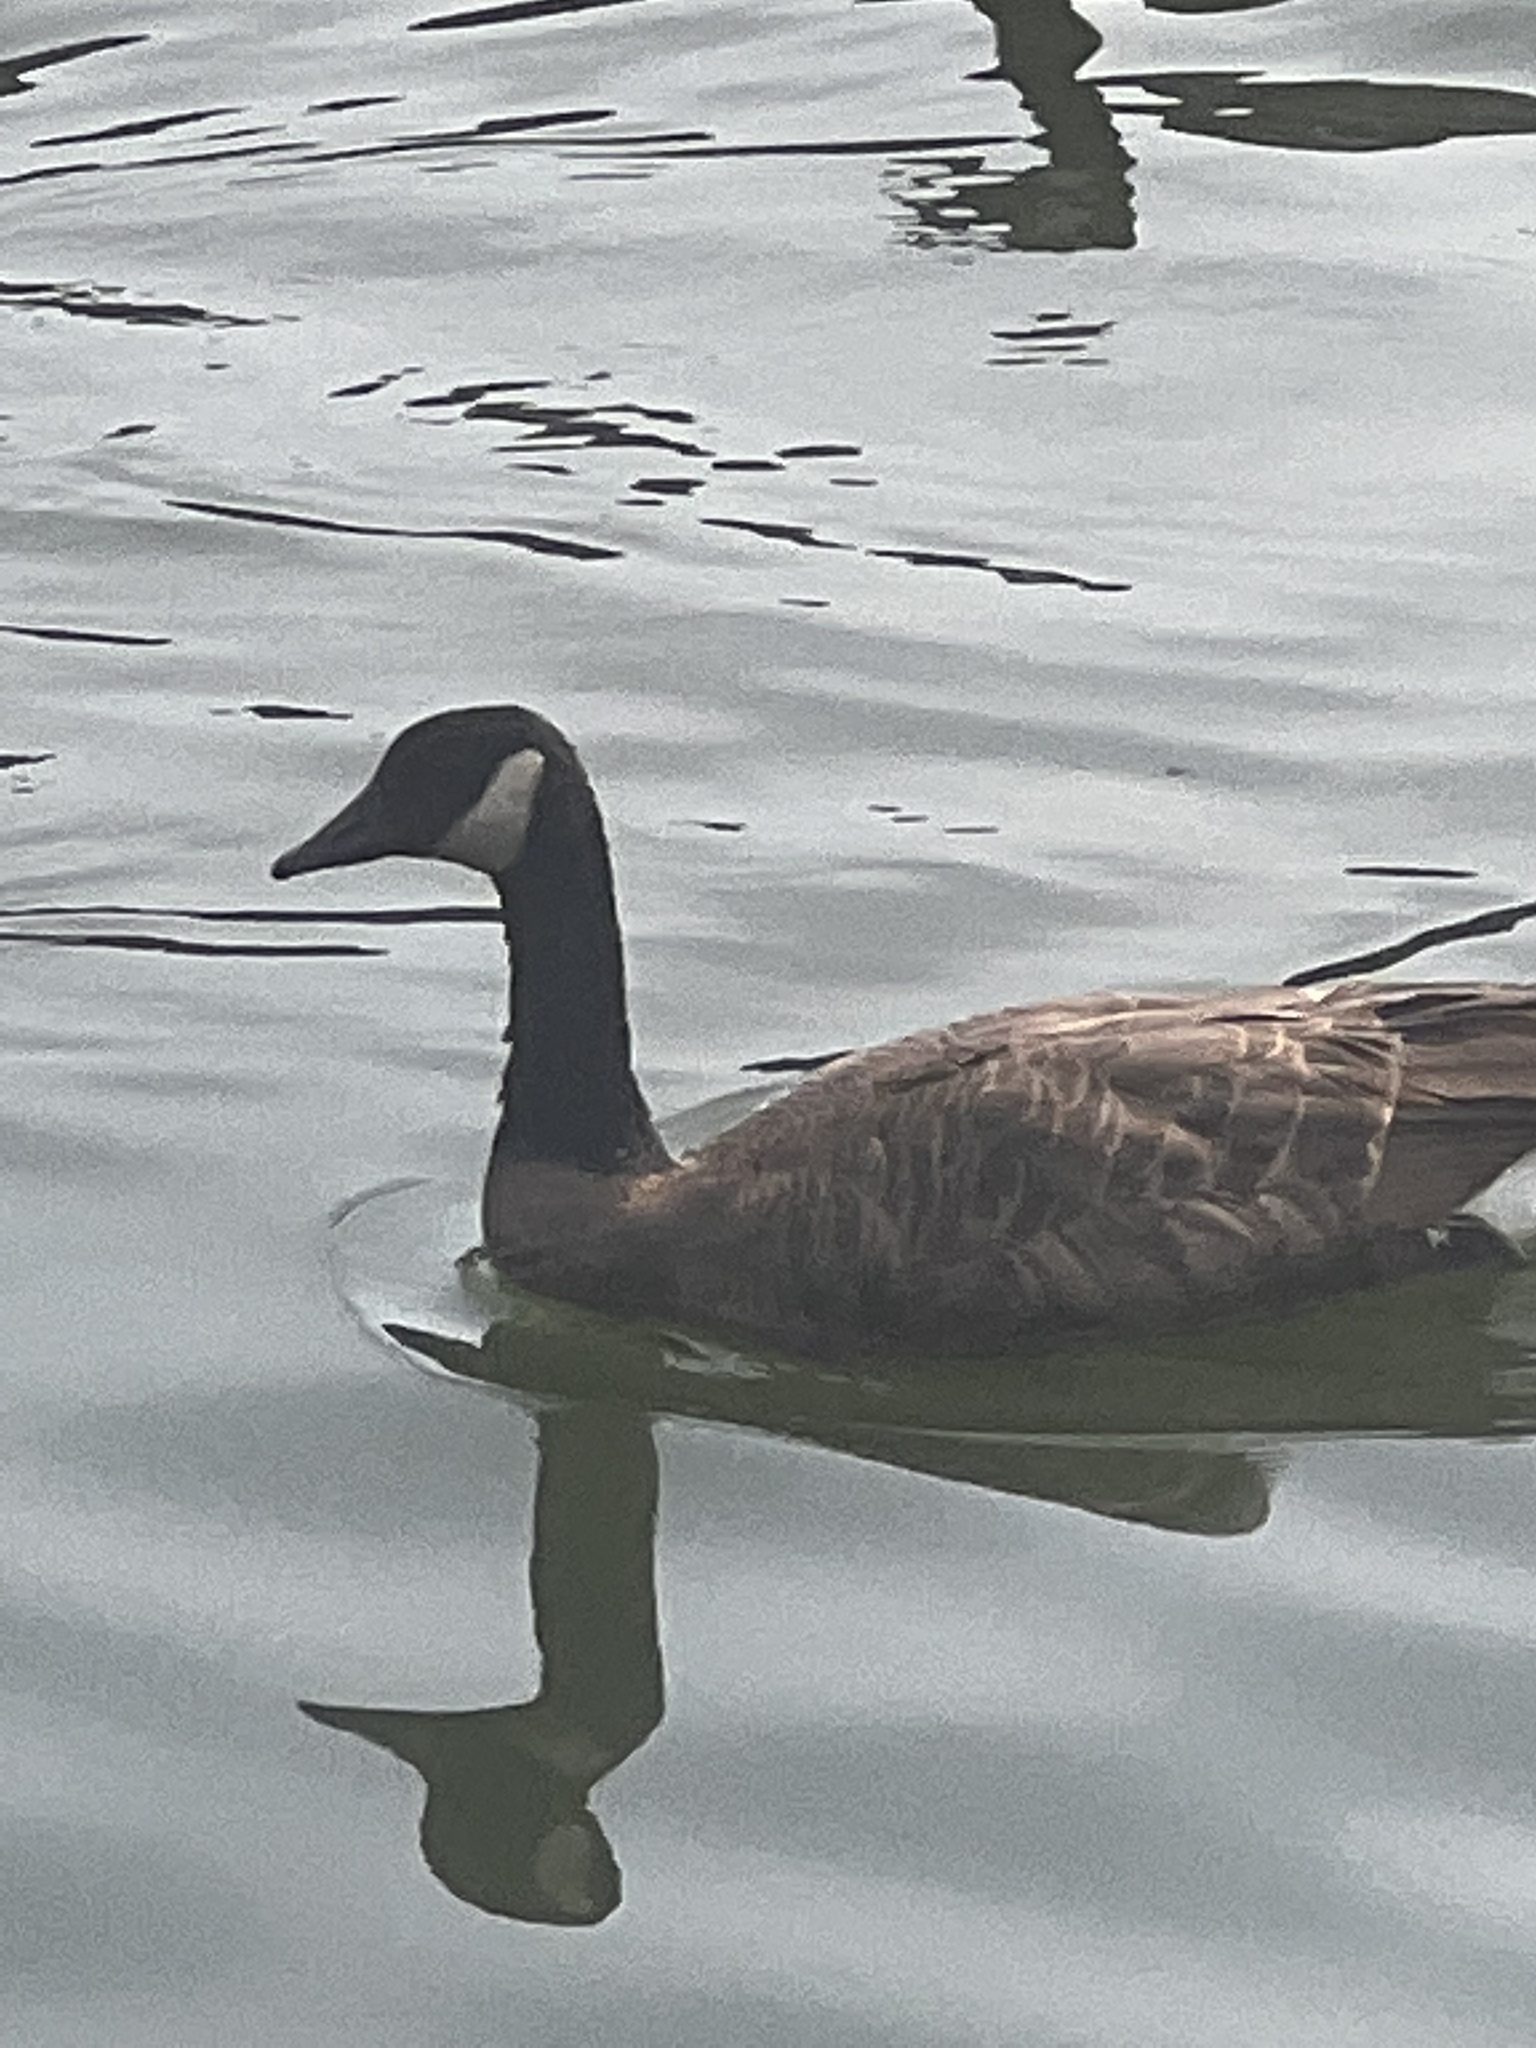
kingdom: Animalia
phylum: Chordata
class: Aves
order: Anseriformes
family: Anatidae
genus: Branta
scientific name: Branta canadensis
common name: Canada goose
